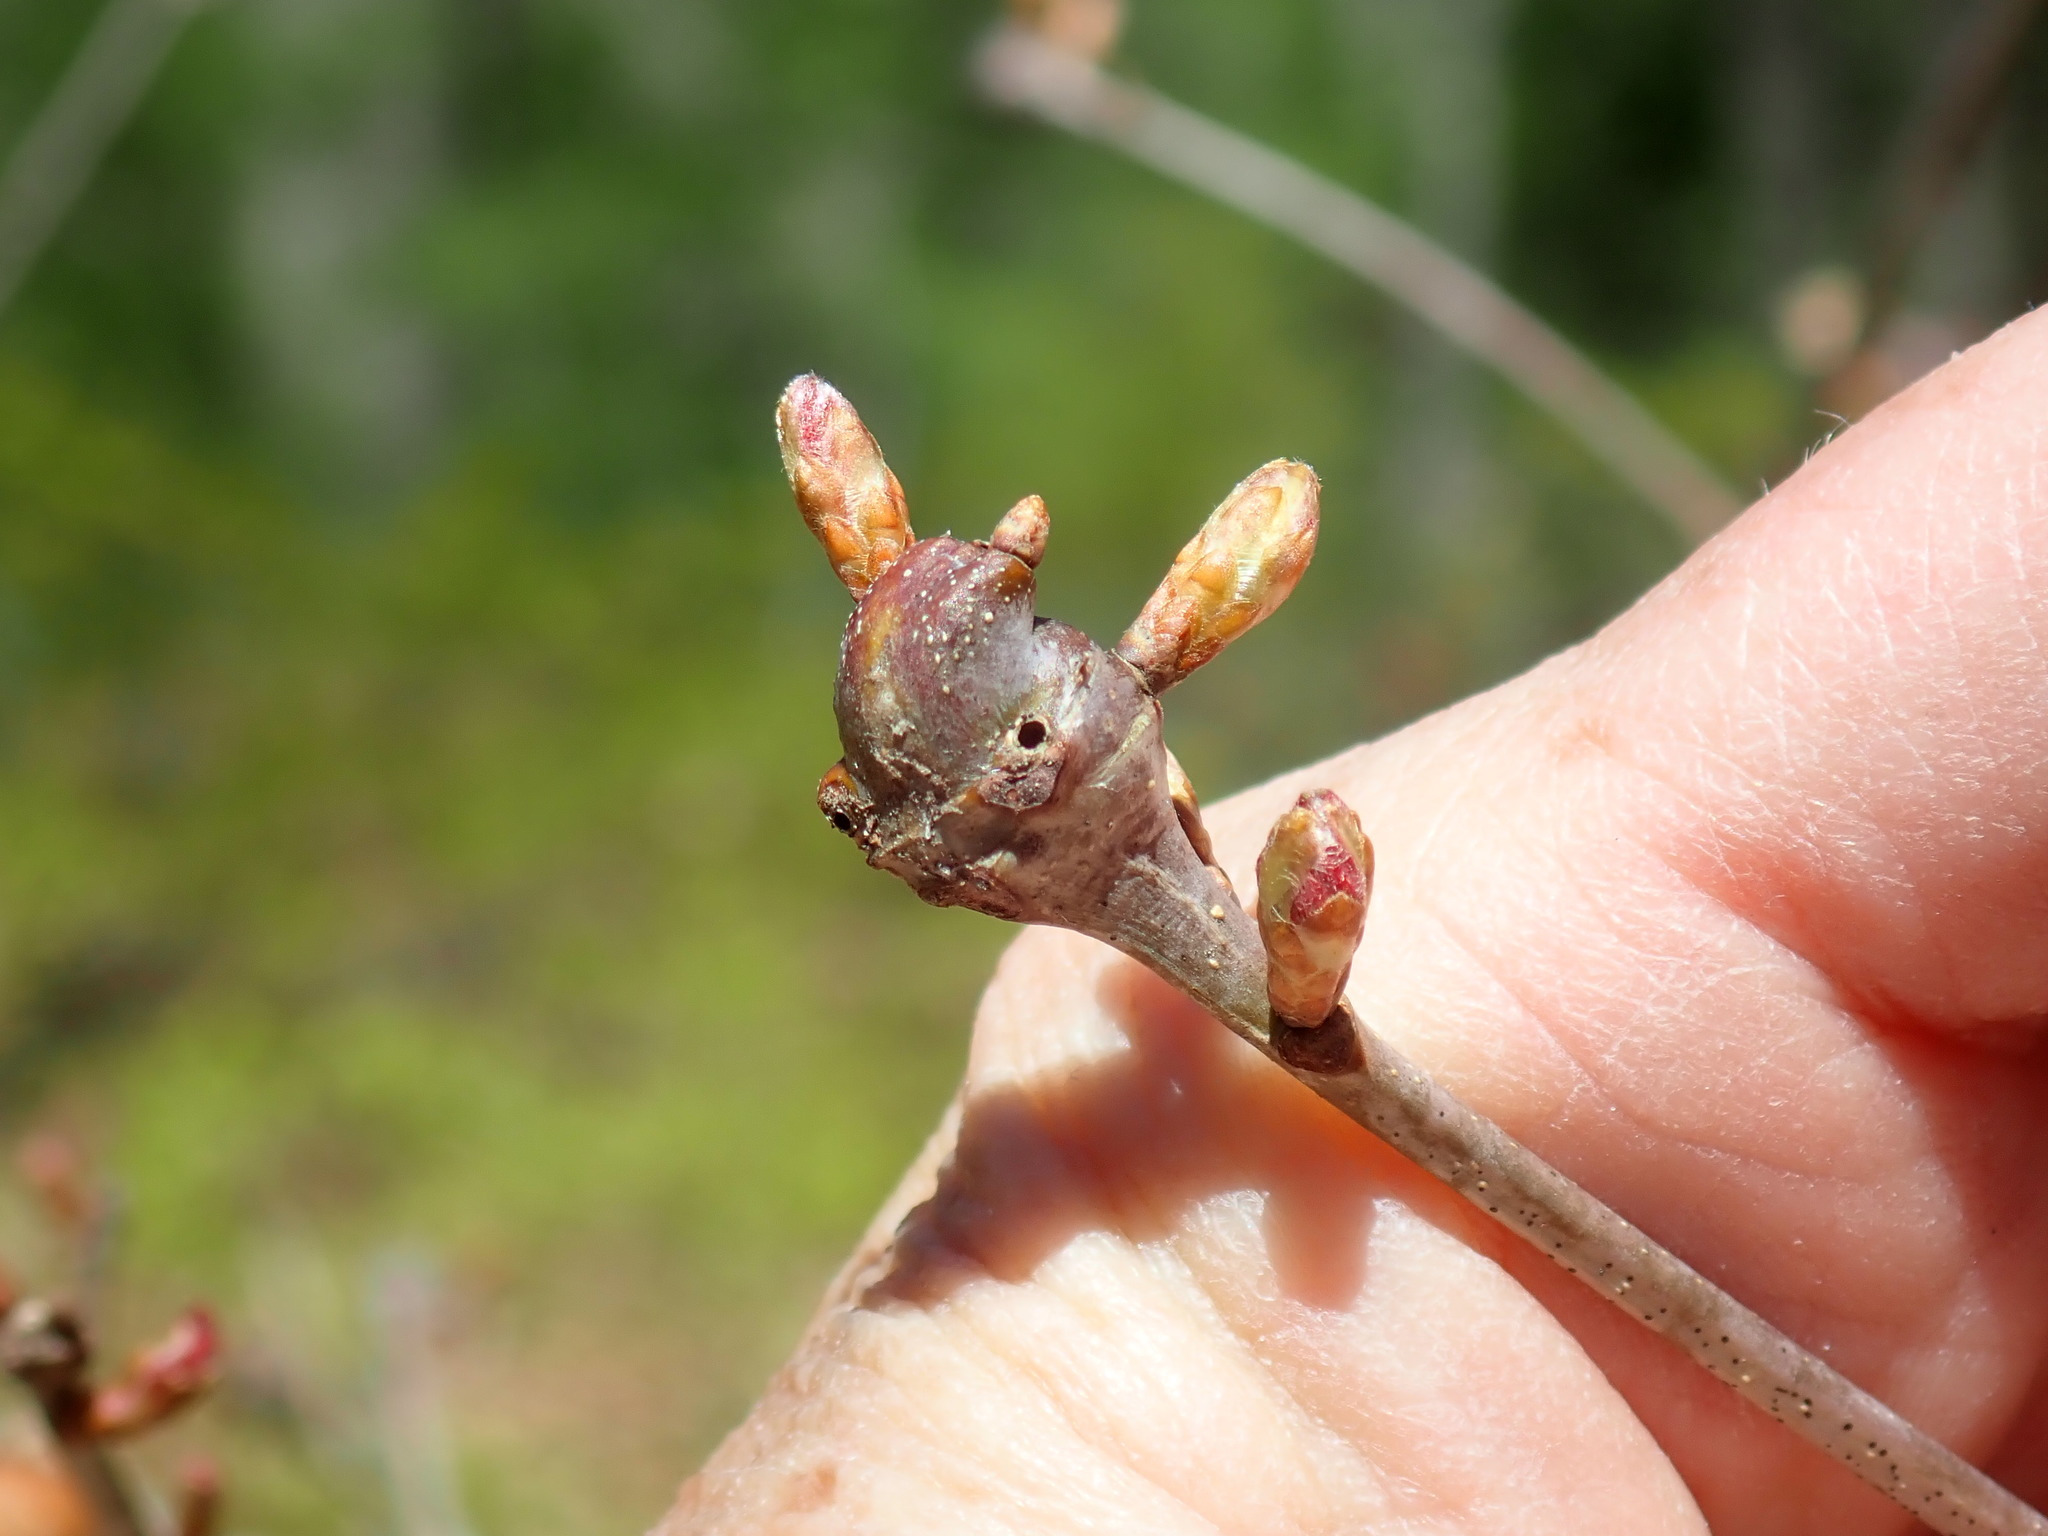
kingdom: Animalia
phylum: Arthropoda
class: Insecta
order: Hymenoptera
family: Cynipidae
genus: Zapatella
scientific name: Zapatella quercusphellos
